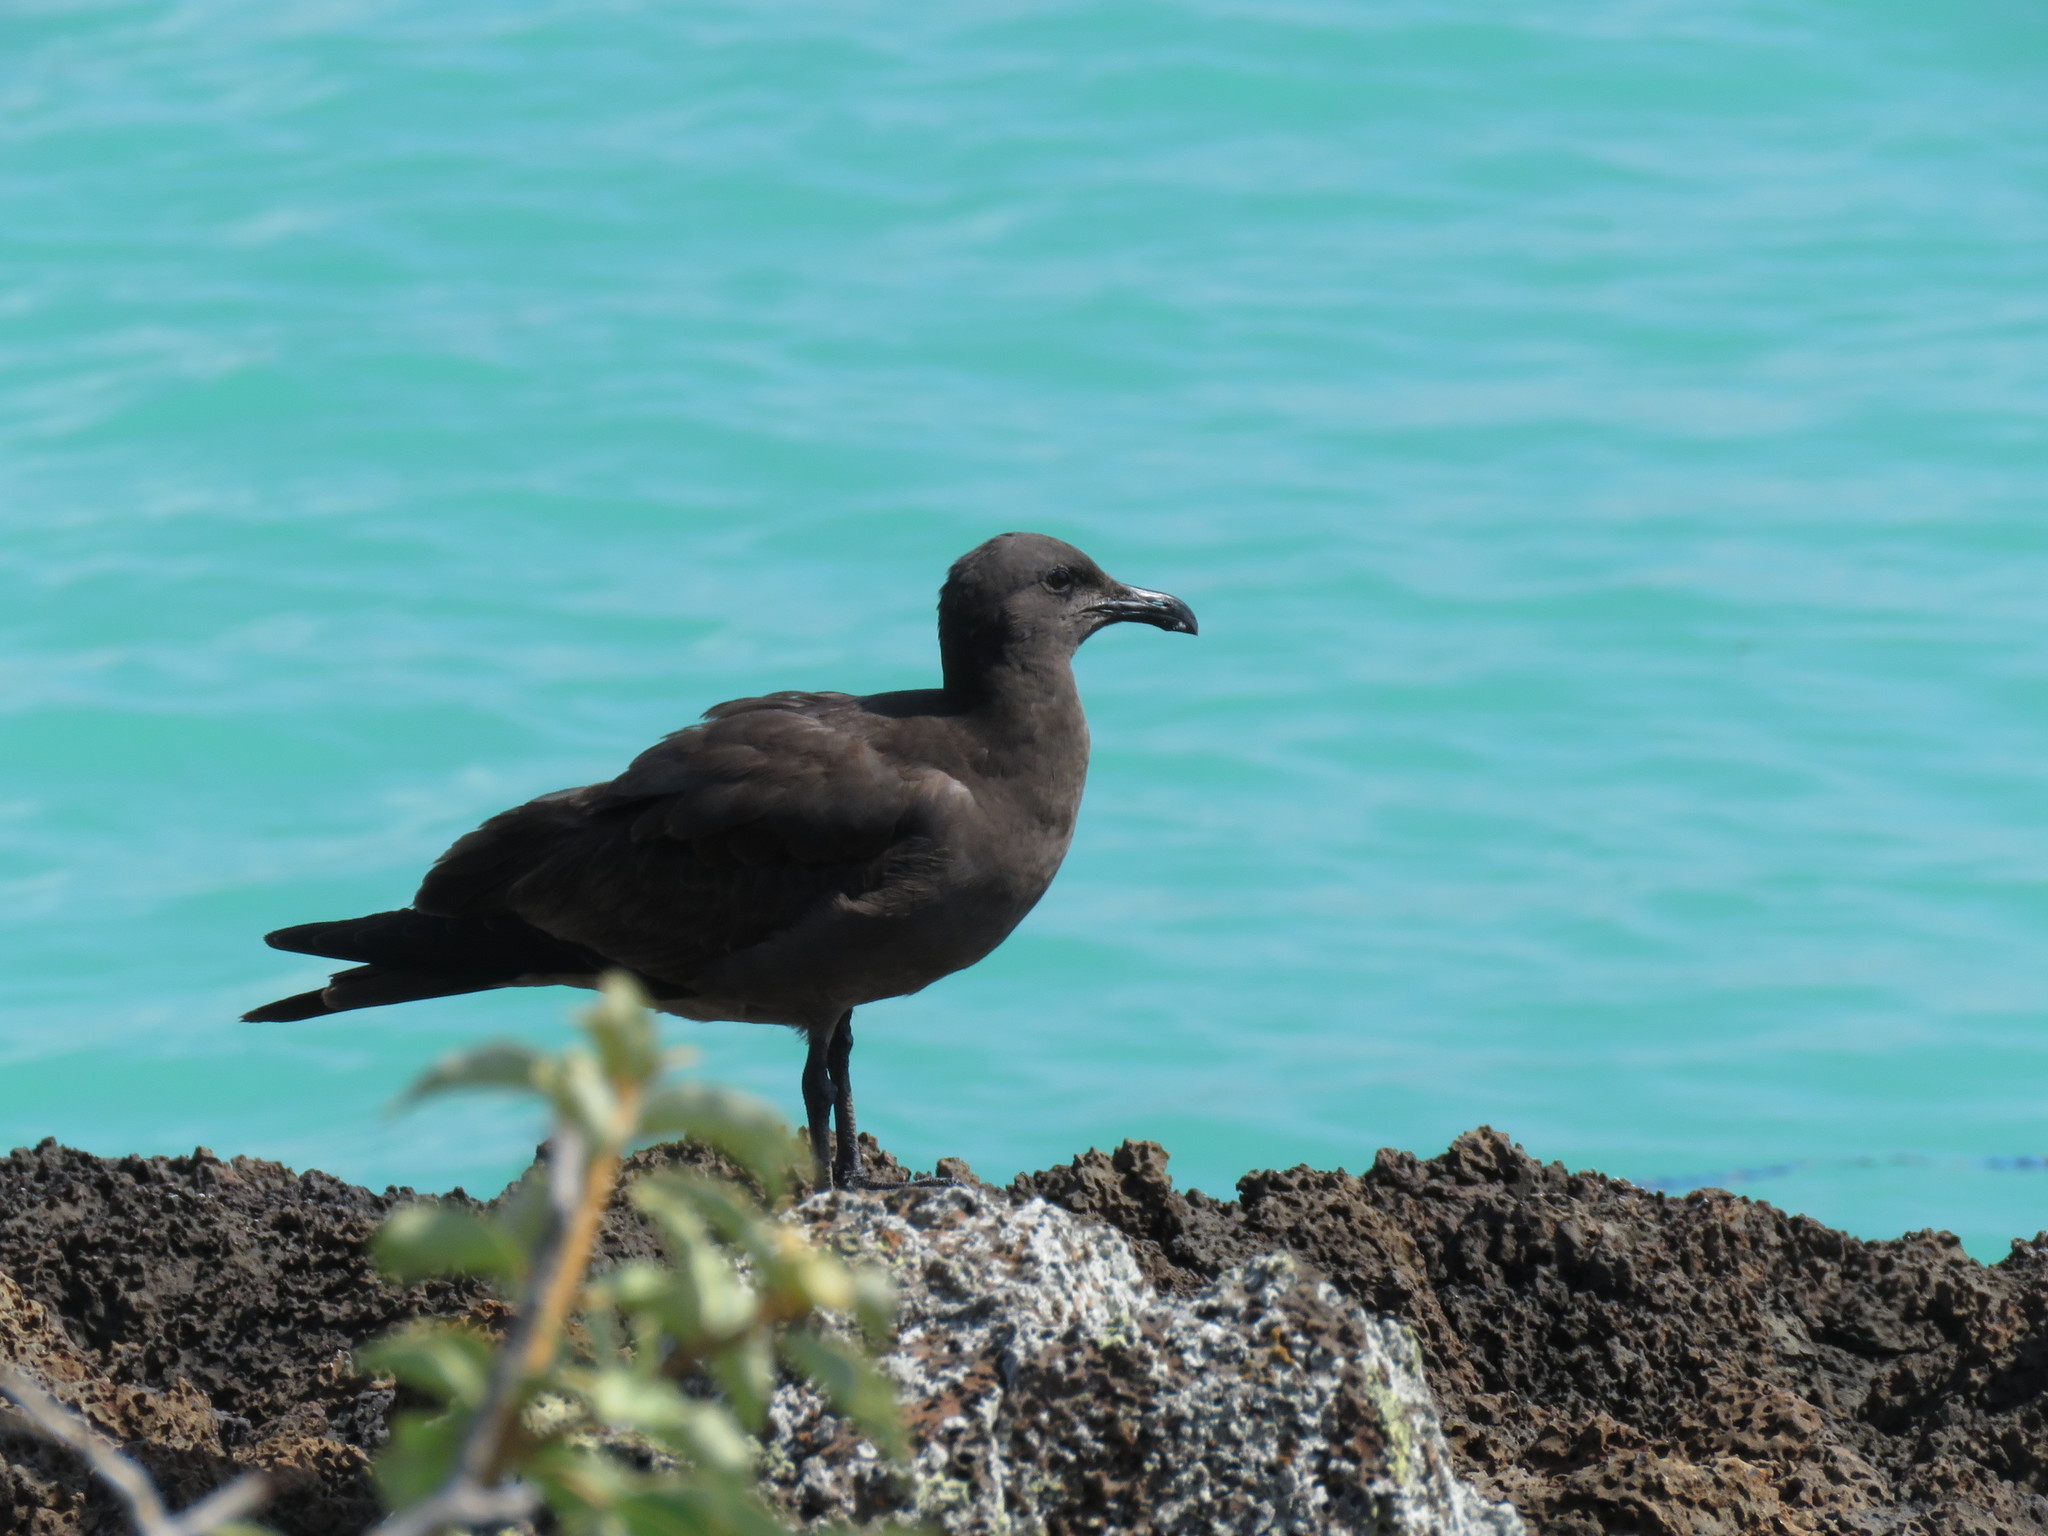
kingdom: Animalia
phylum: Chordata
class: Aves
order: Charadriiformes
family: Laridae
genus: Leucophaeus
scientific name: Leucophaeus fuliginosus
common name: Lava gull
